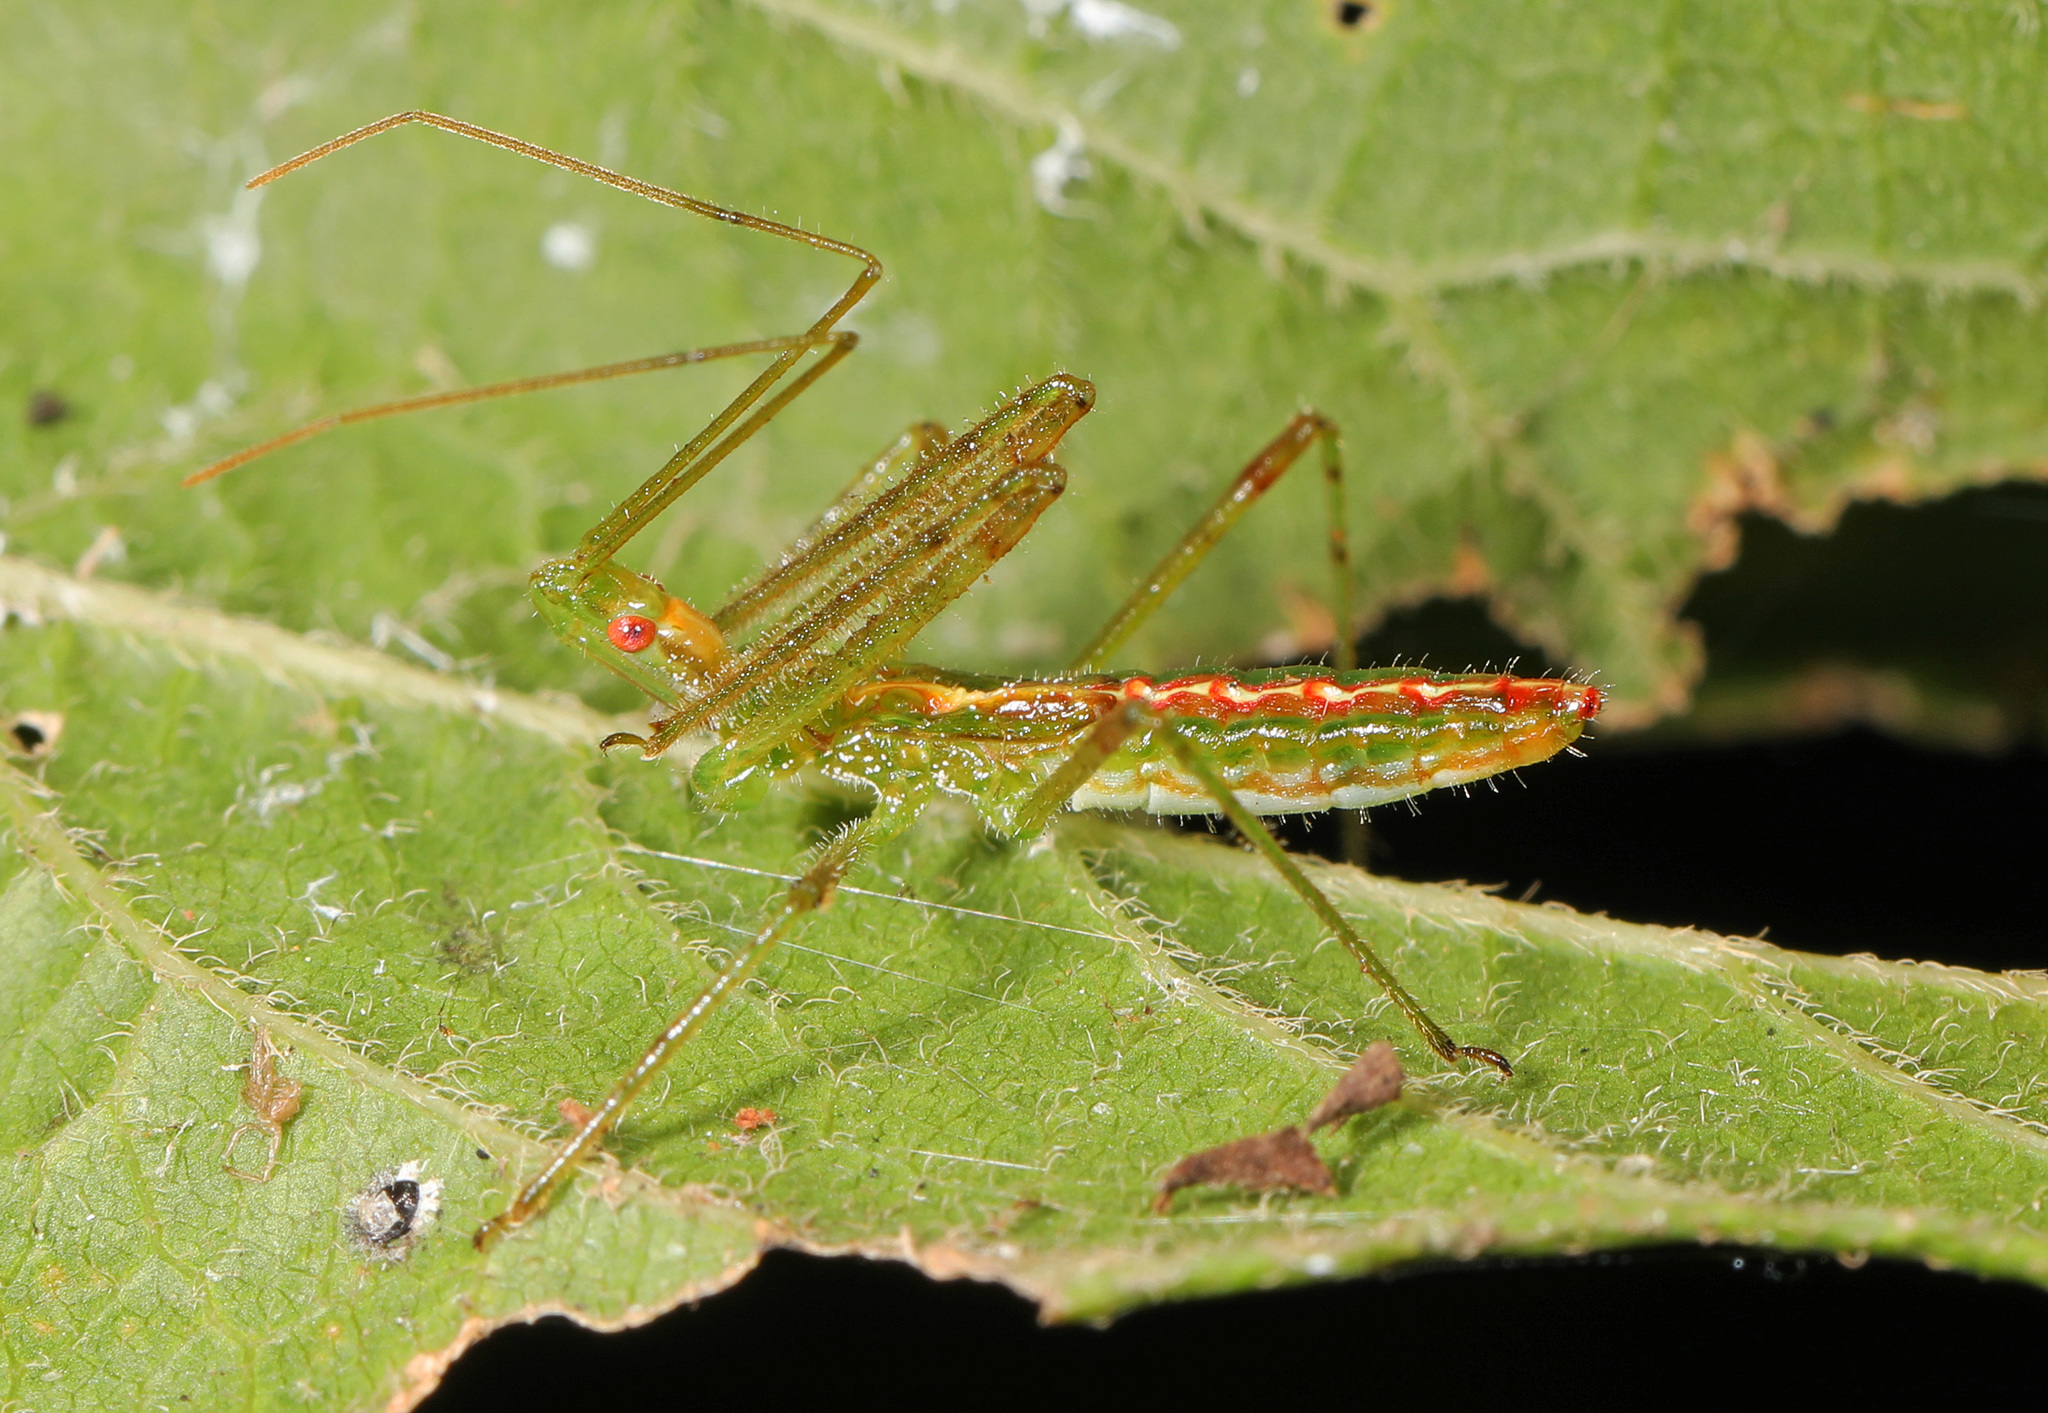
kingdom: Animalia
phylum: Arthropoda
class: Insecta
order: Hemiptera
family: Reduviidae
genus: Zelus
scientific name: Zelus luridus
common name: Pale green assassin bug
